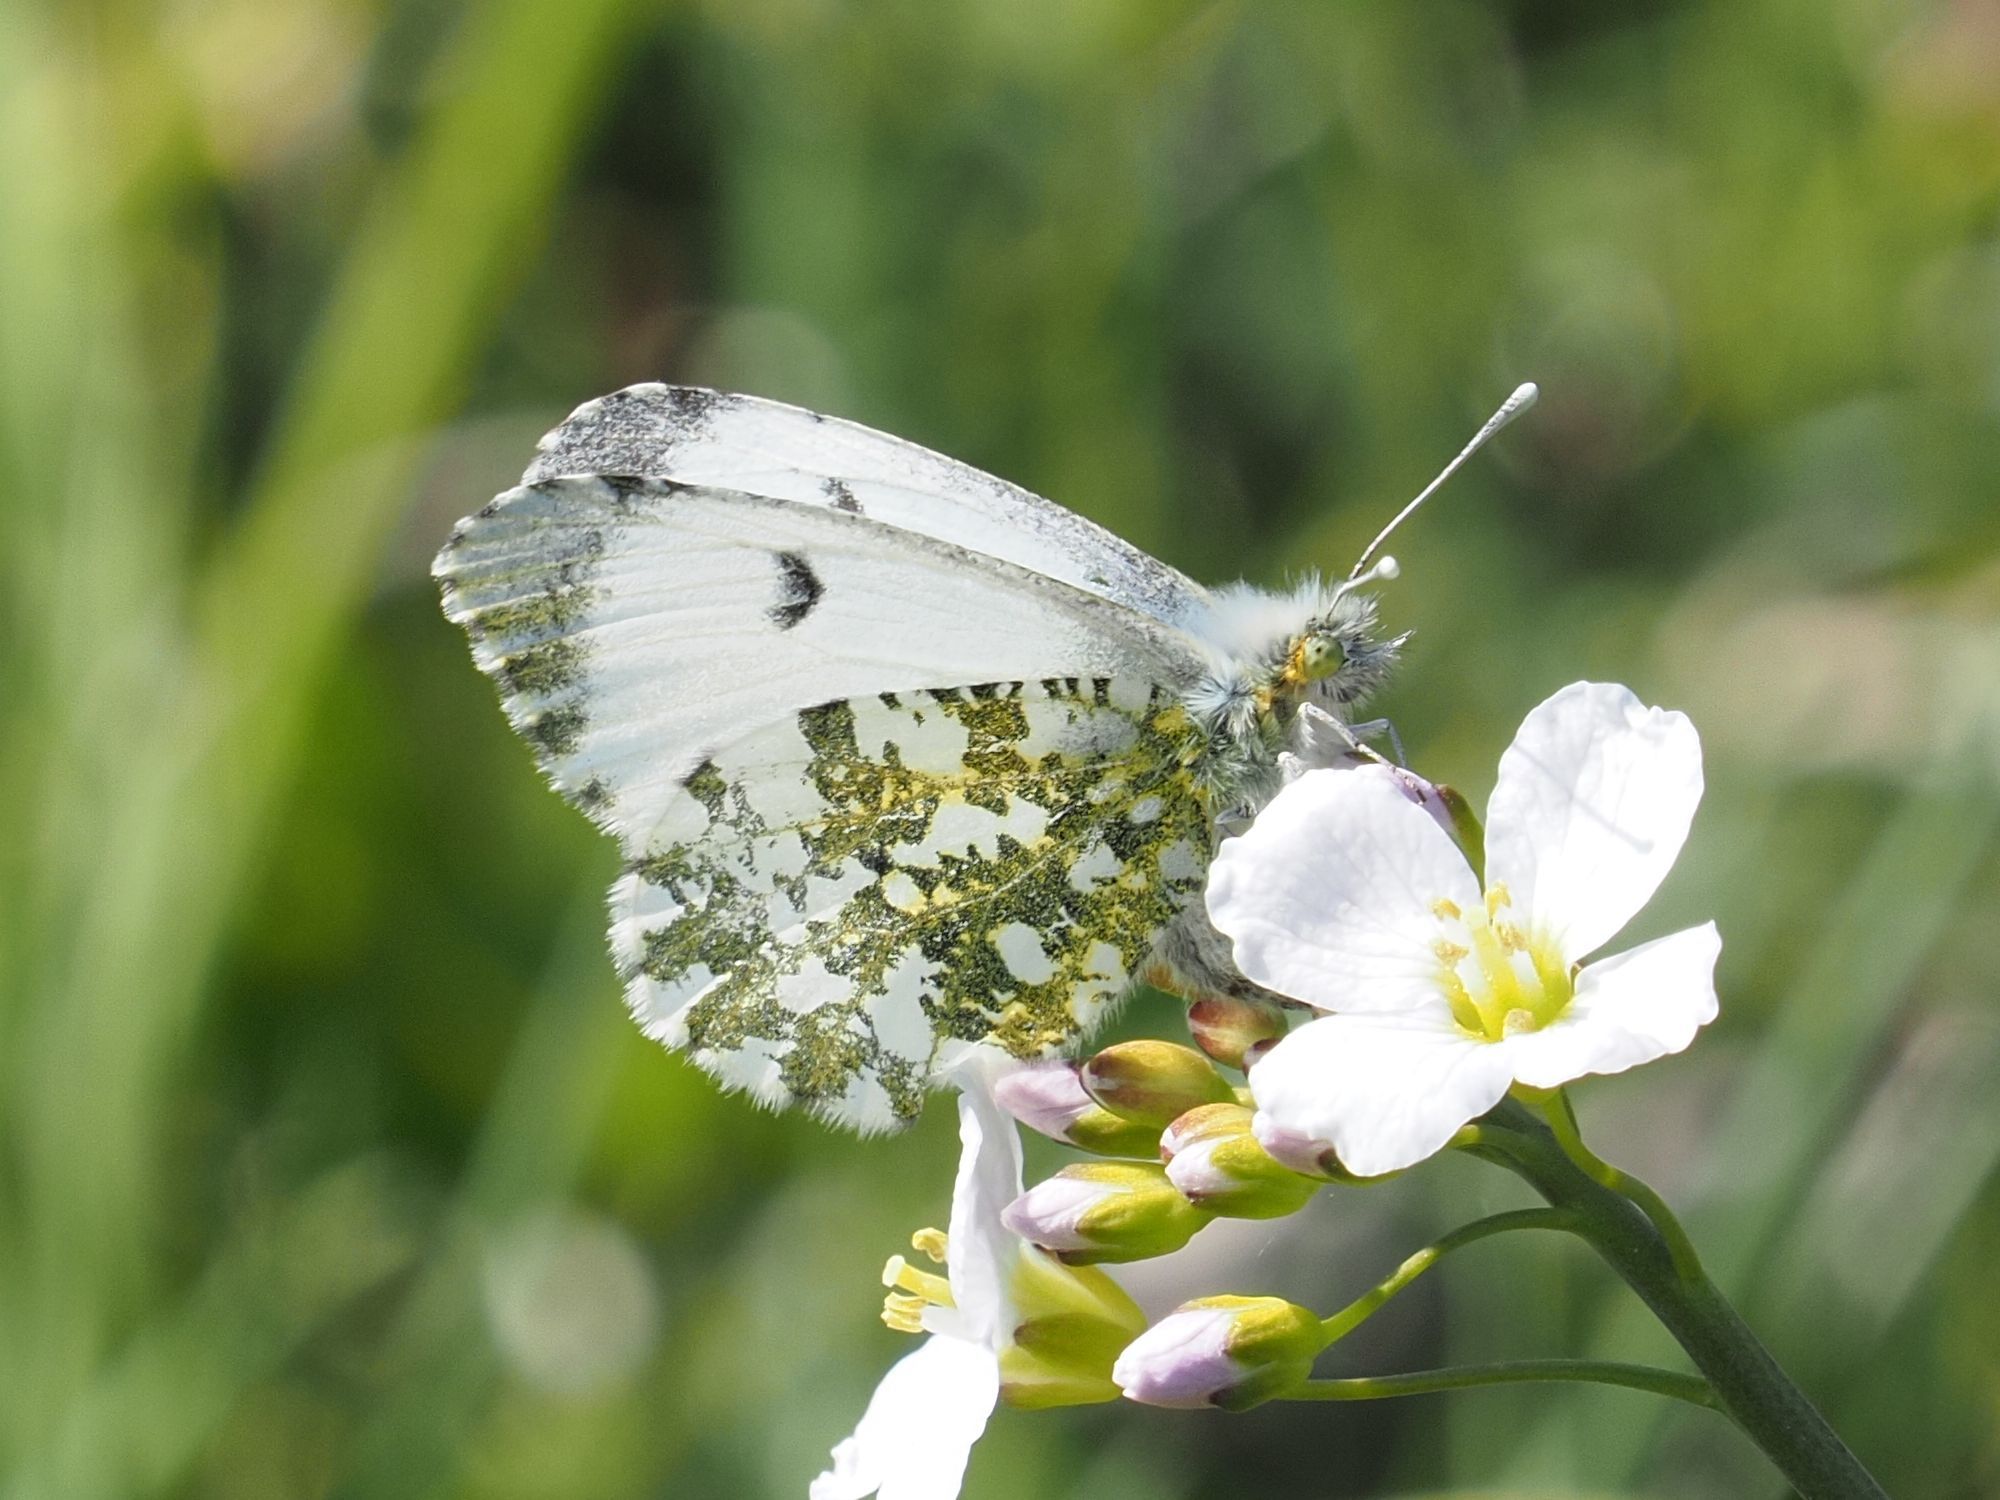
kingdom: Animalia
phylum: Arthropoda
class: Insecta
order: Lepidoptera
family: Pieridae
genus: Anthocharis
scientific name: Anthocharis cardamines
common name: Orange-tip
